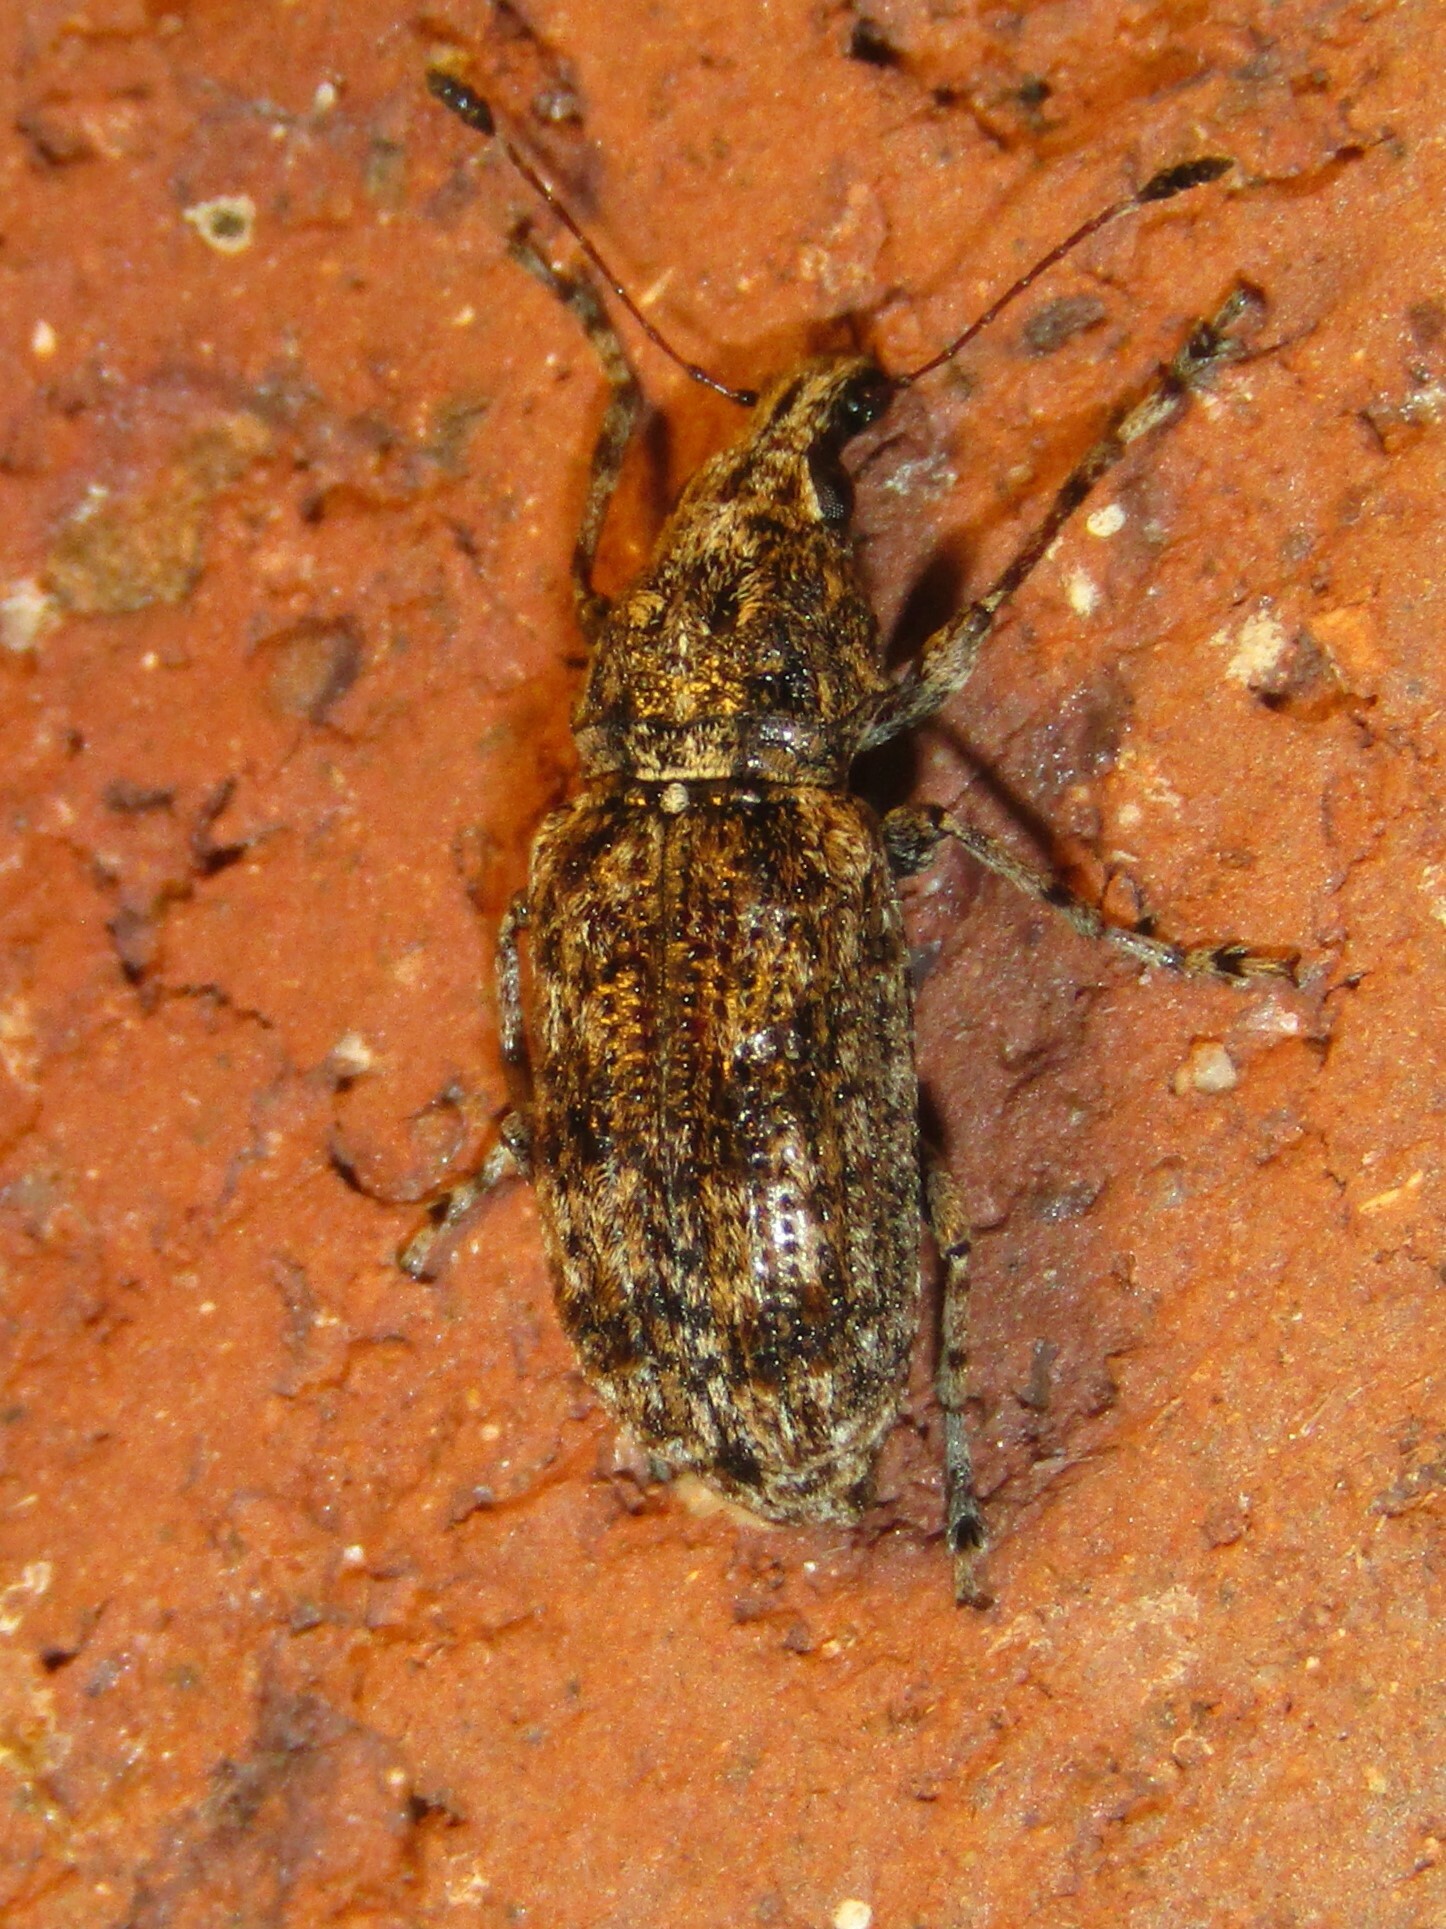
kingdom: Animalia
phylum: Arthropoda
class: Insecta
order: Coleoptera
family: Anthribidae
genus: Meconemus
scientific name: Meconemus infuscatus
